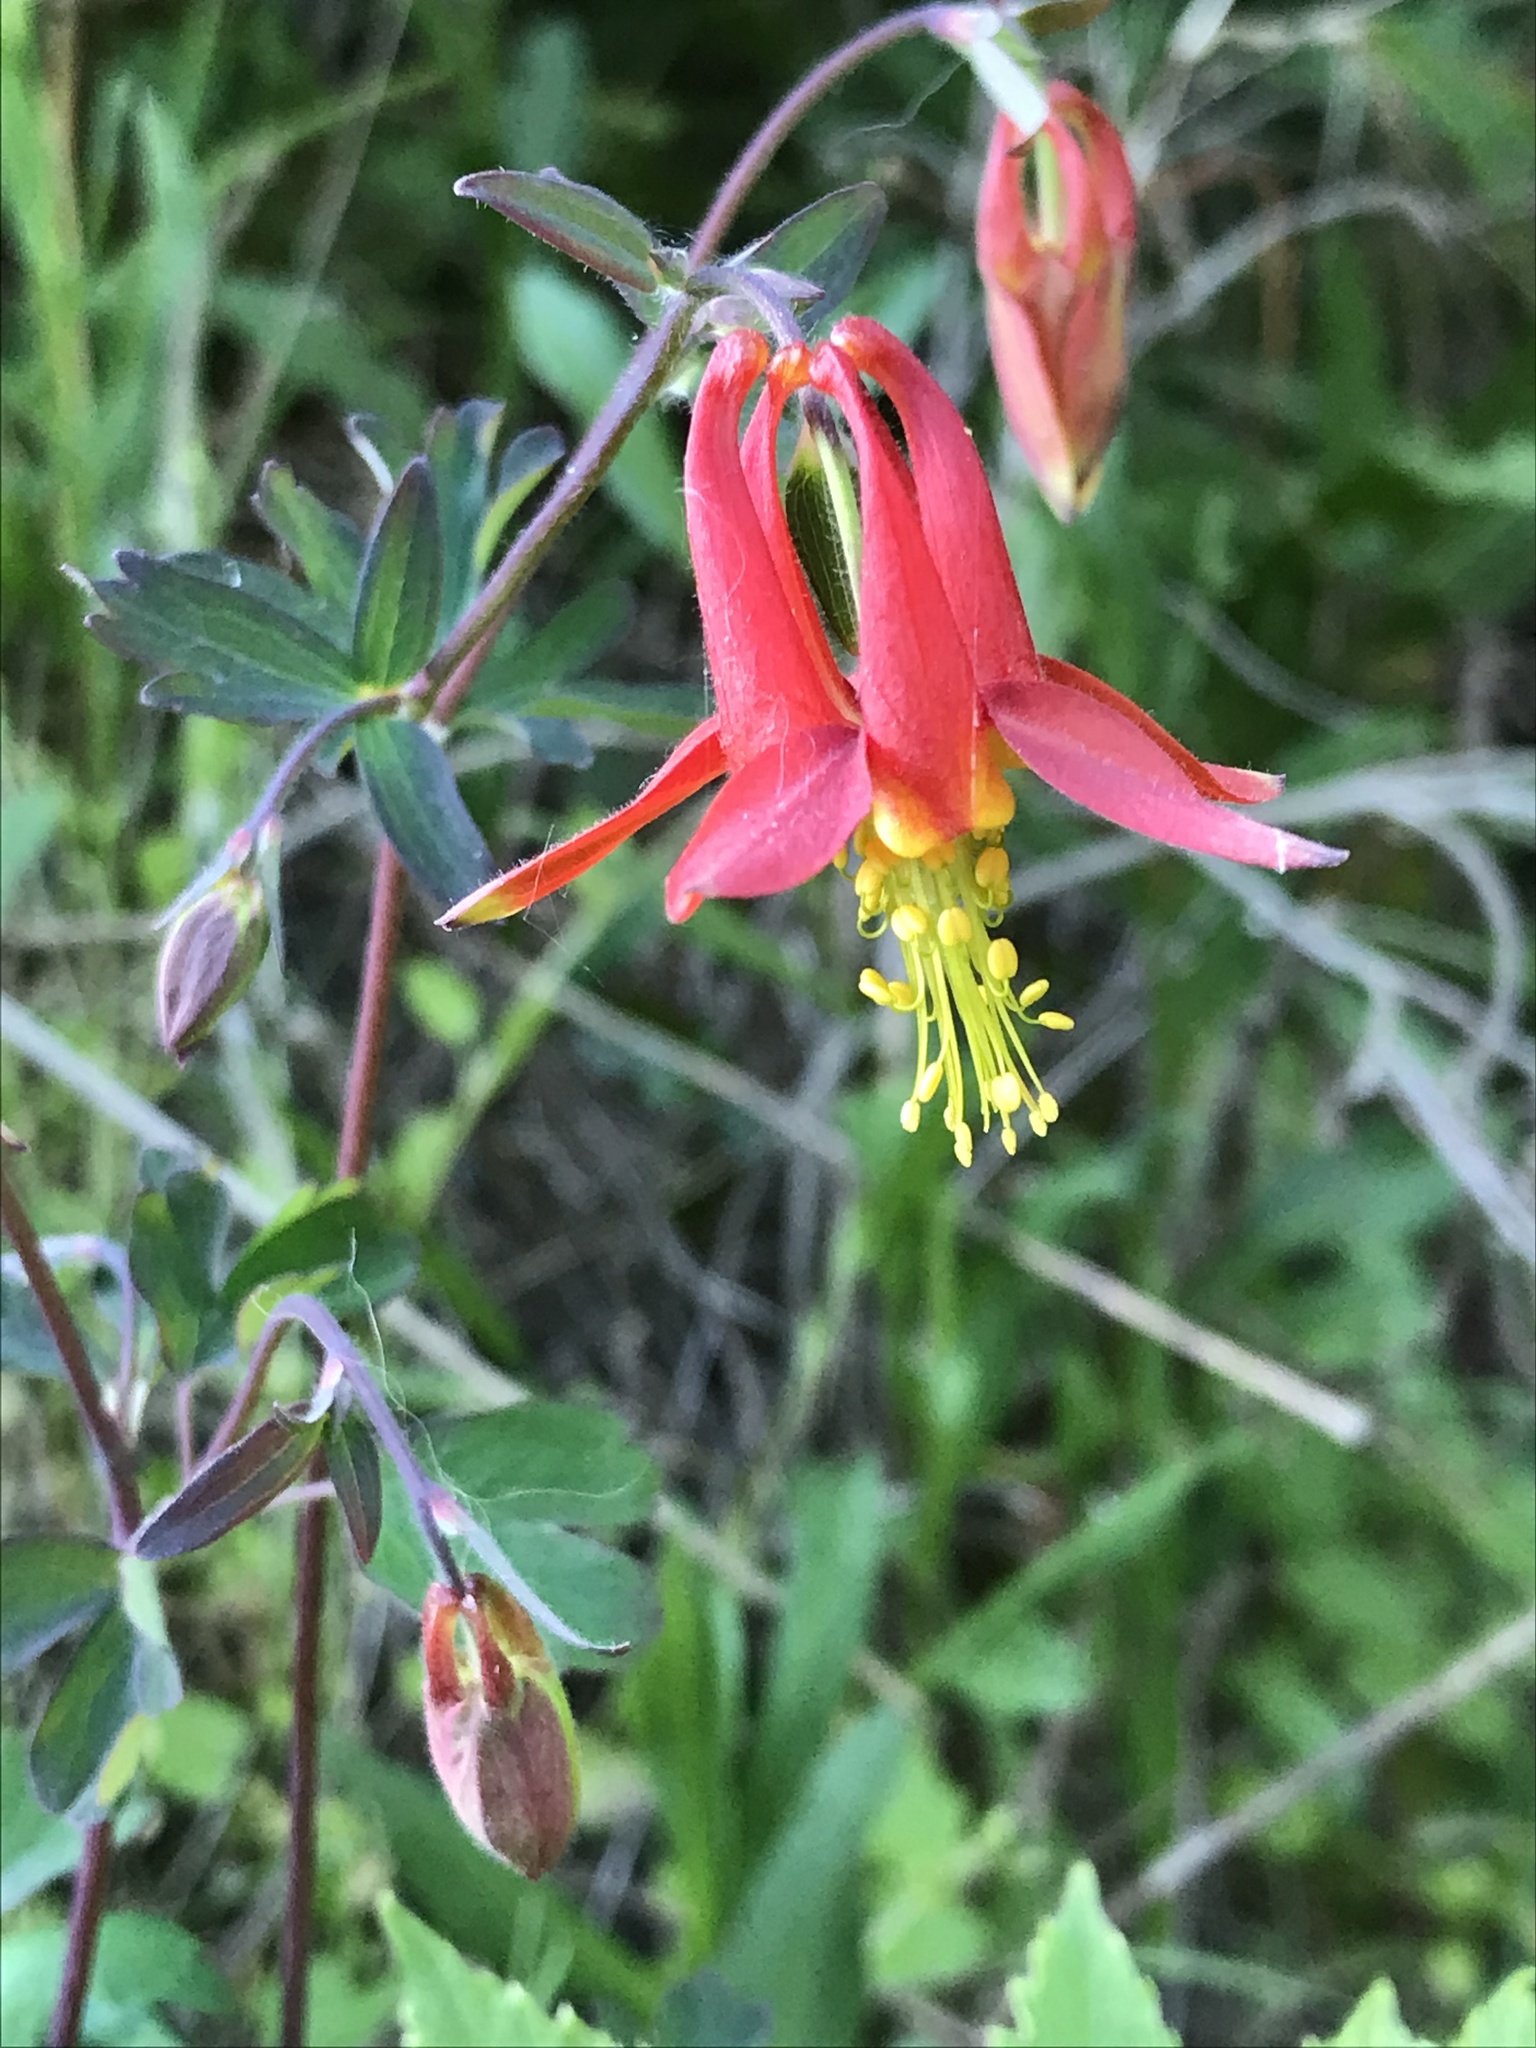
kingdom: Plantae
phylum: Tracheophyta
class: Magnoliopsida
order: Ranunculales
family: Ranunculaceae
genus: Aquilegia
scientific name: Aquilegia formosa
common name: Sitka columbine
